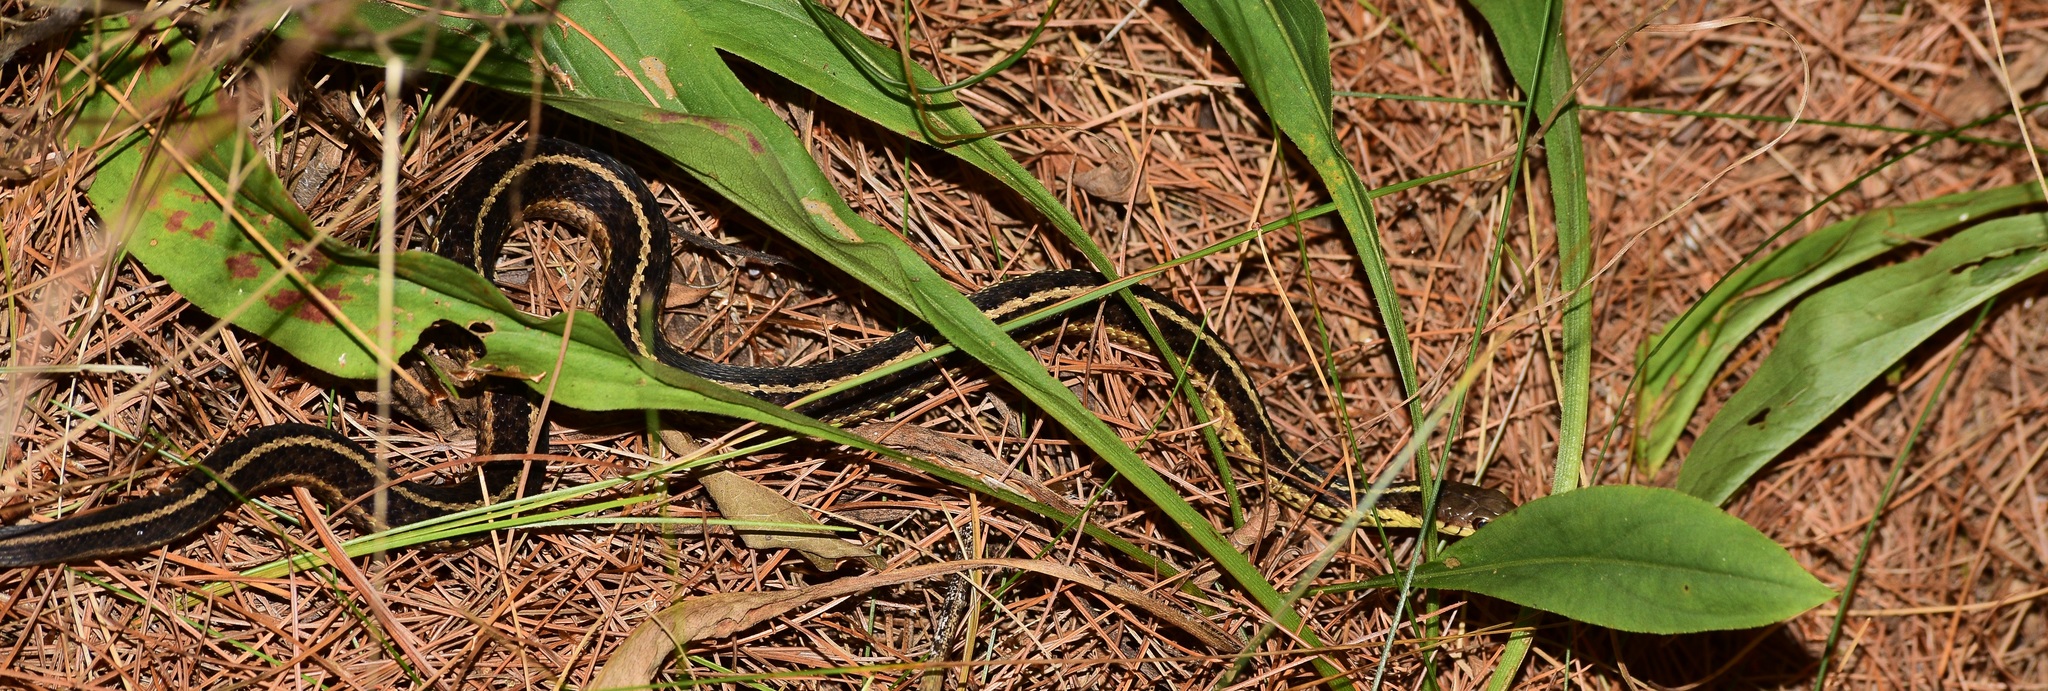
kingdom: Animalia
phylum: Chordata
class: Squamata
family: Colubridae
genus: Thamnophis
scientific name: Thamnophis sirtalis
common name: Common garter snake
